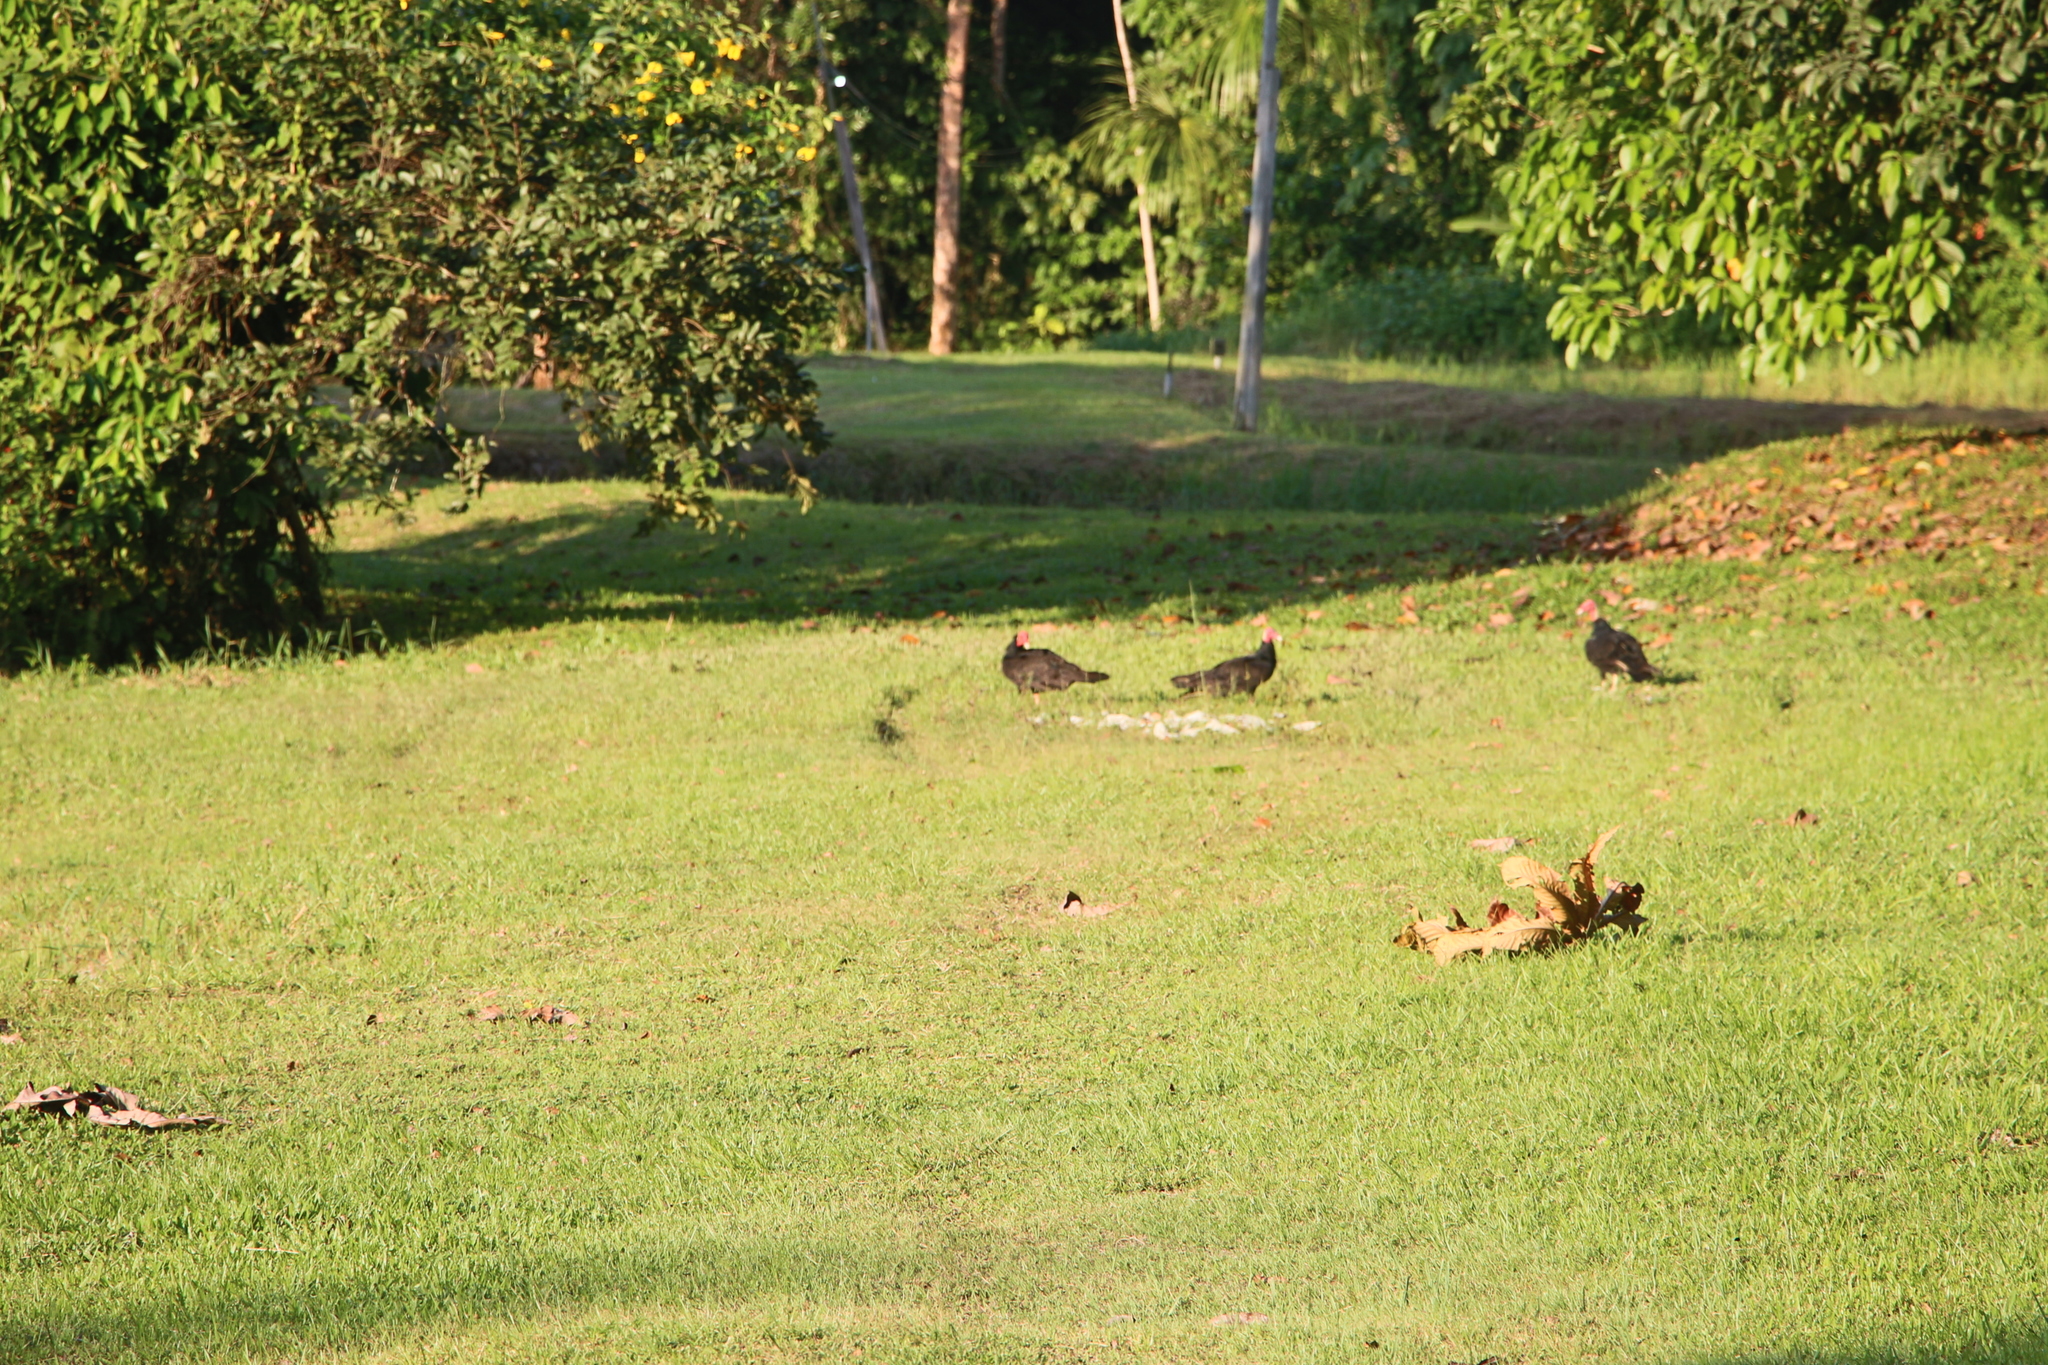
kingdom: Animalia
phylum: Chordata
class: Aves
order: Accipitriformes
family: Cathartidae
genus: Cathartes
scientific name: Cathartes aura
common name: Turkey vulture
